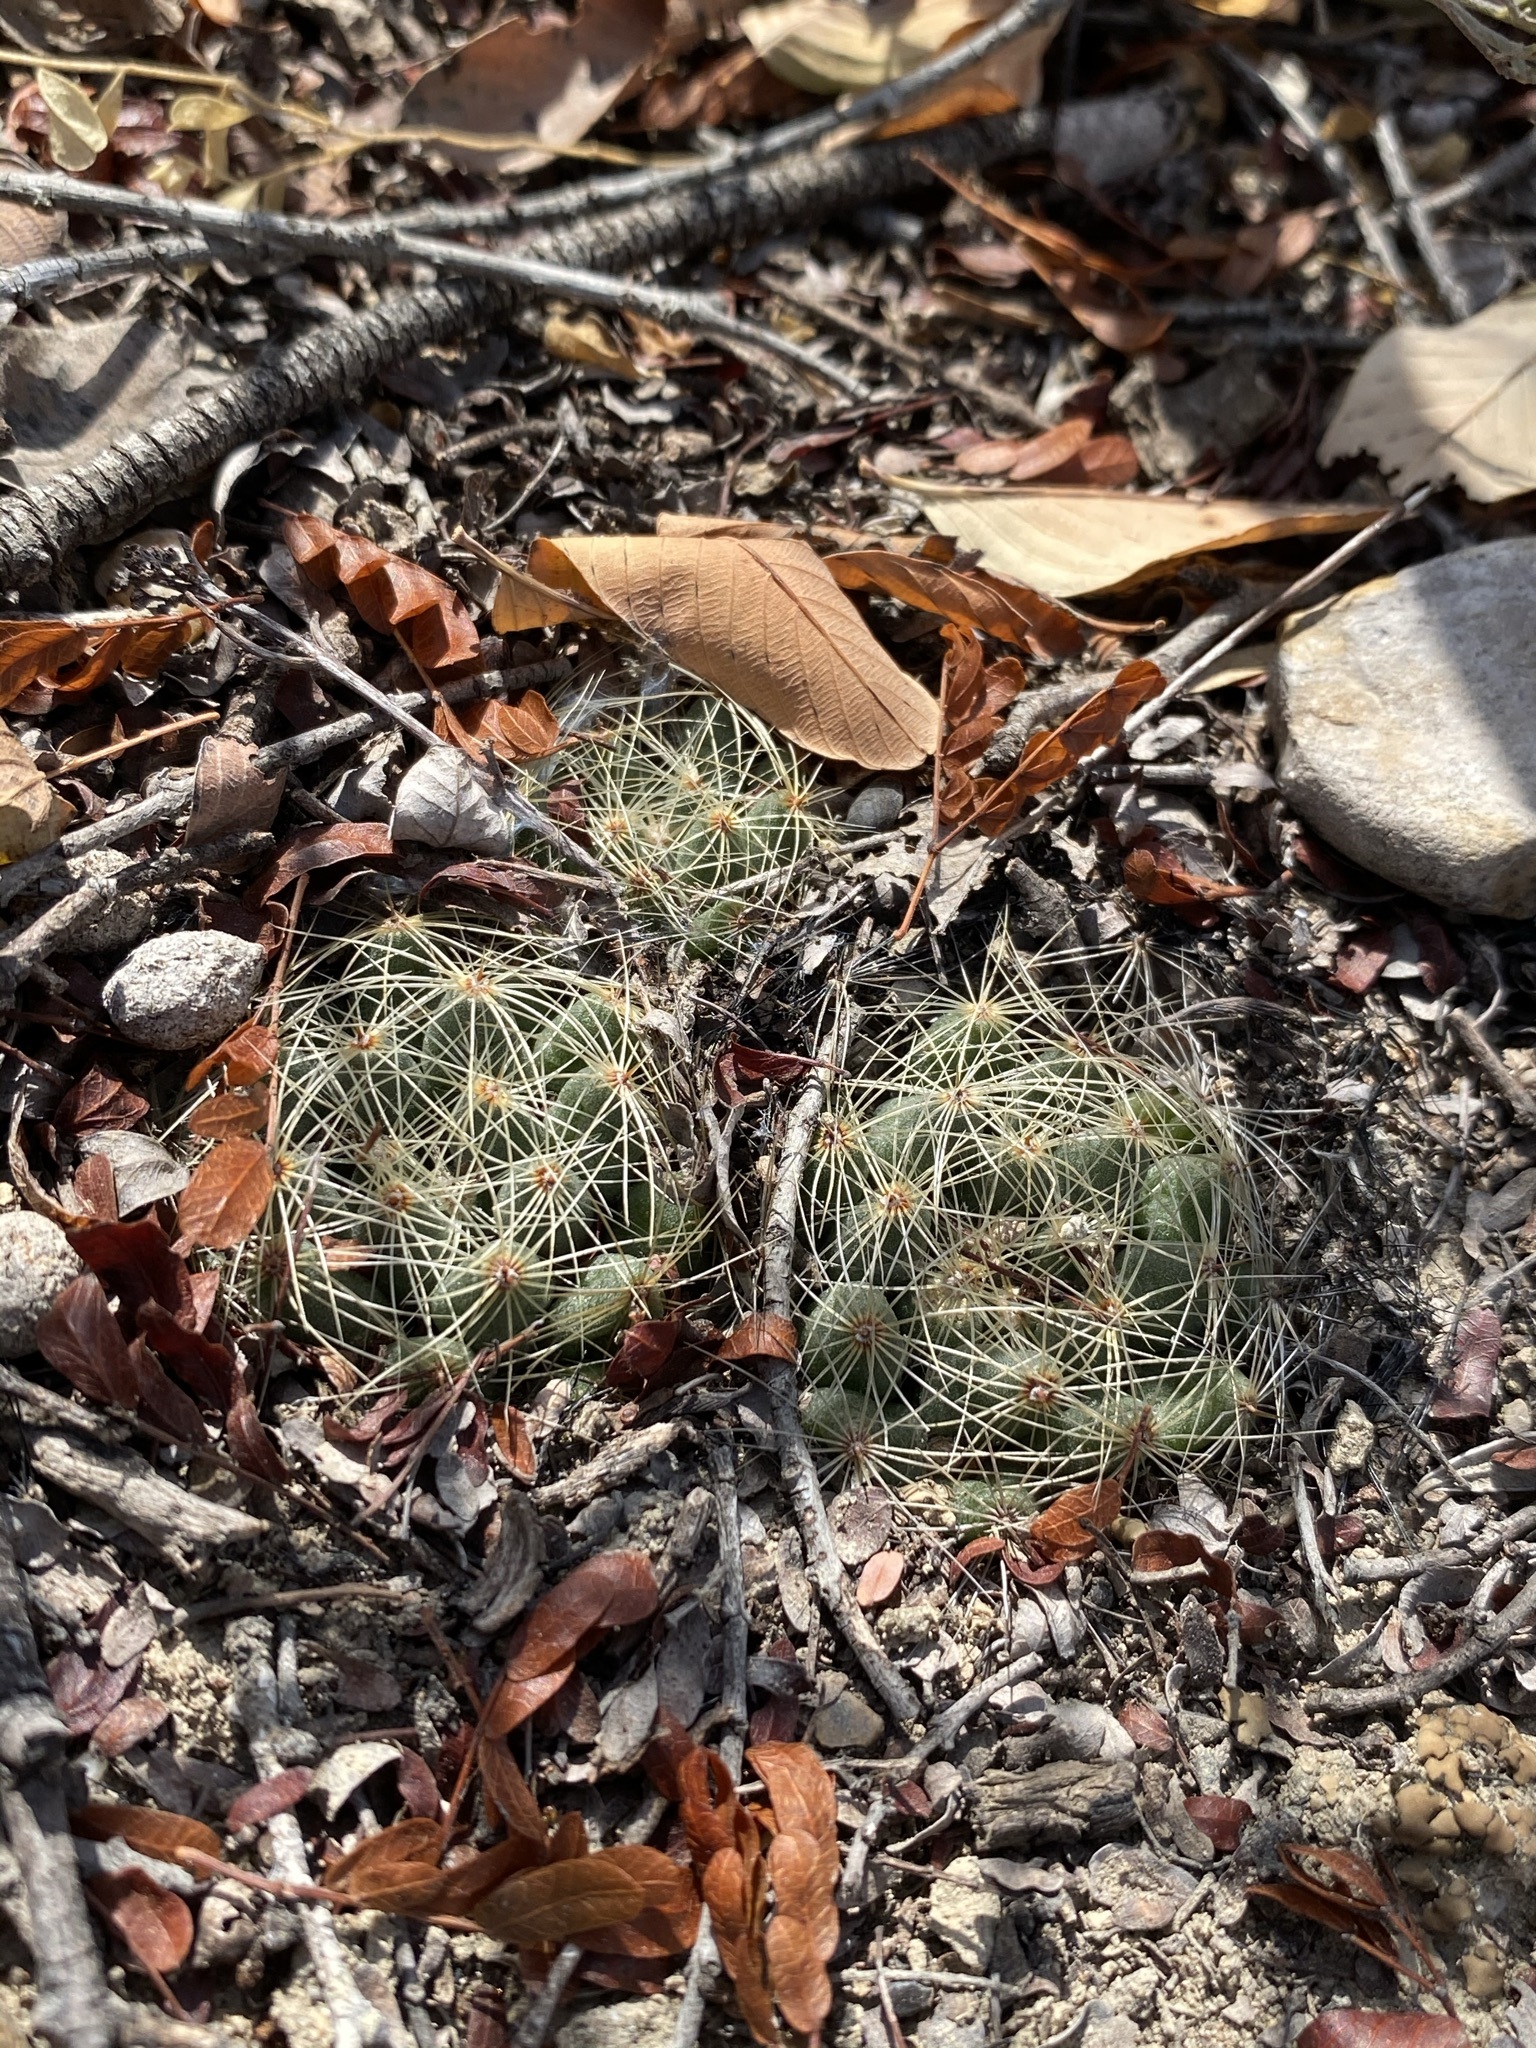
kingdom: Plantae
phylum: Tracheophyta
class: Magnoliopsida
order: Caryophyllales
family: Cactaceae
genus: Mammillaria
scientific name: Mammillaria sphaerica
